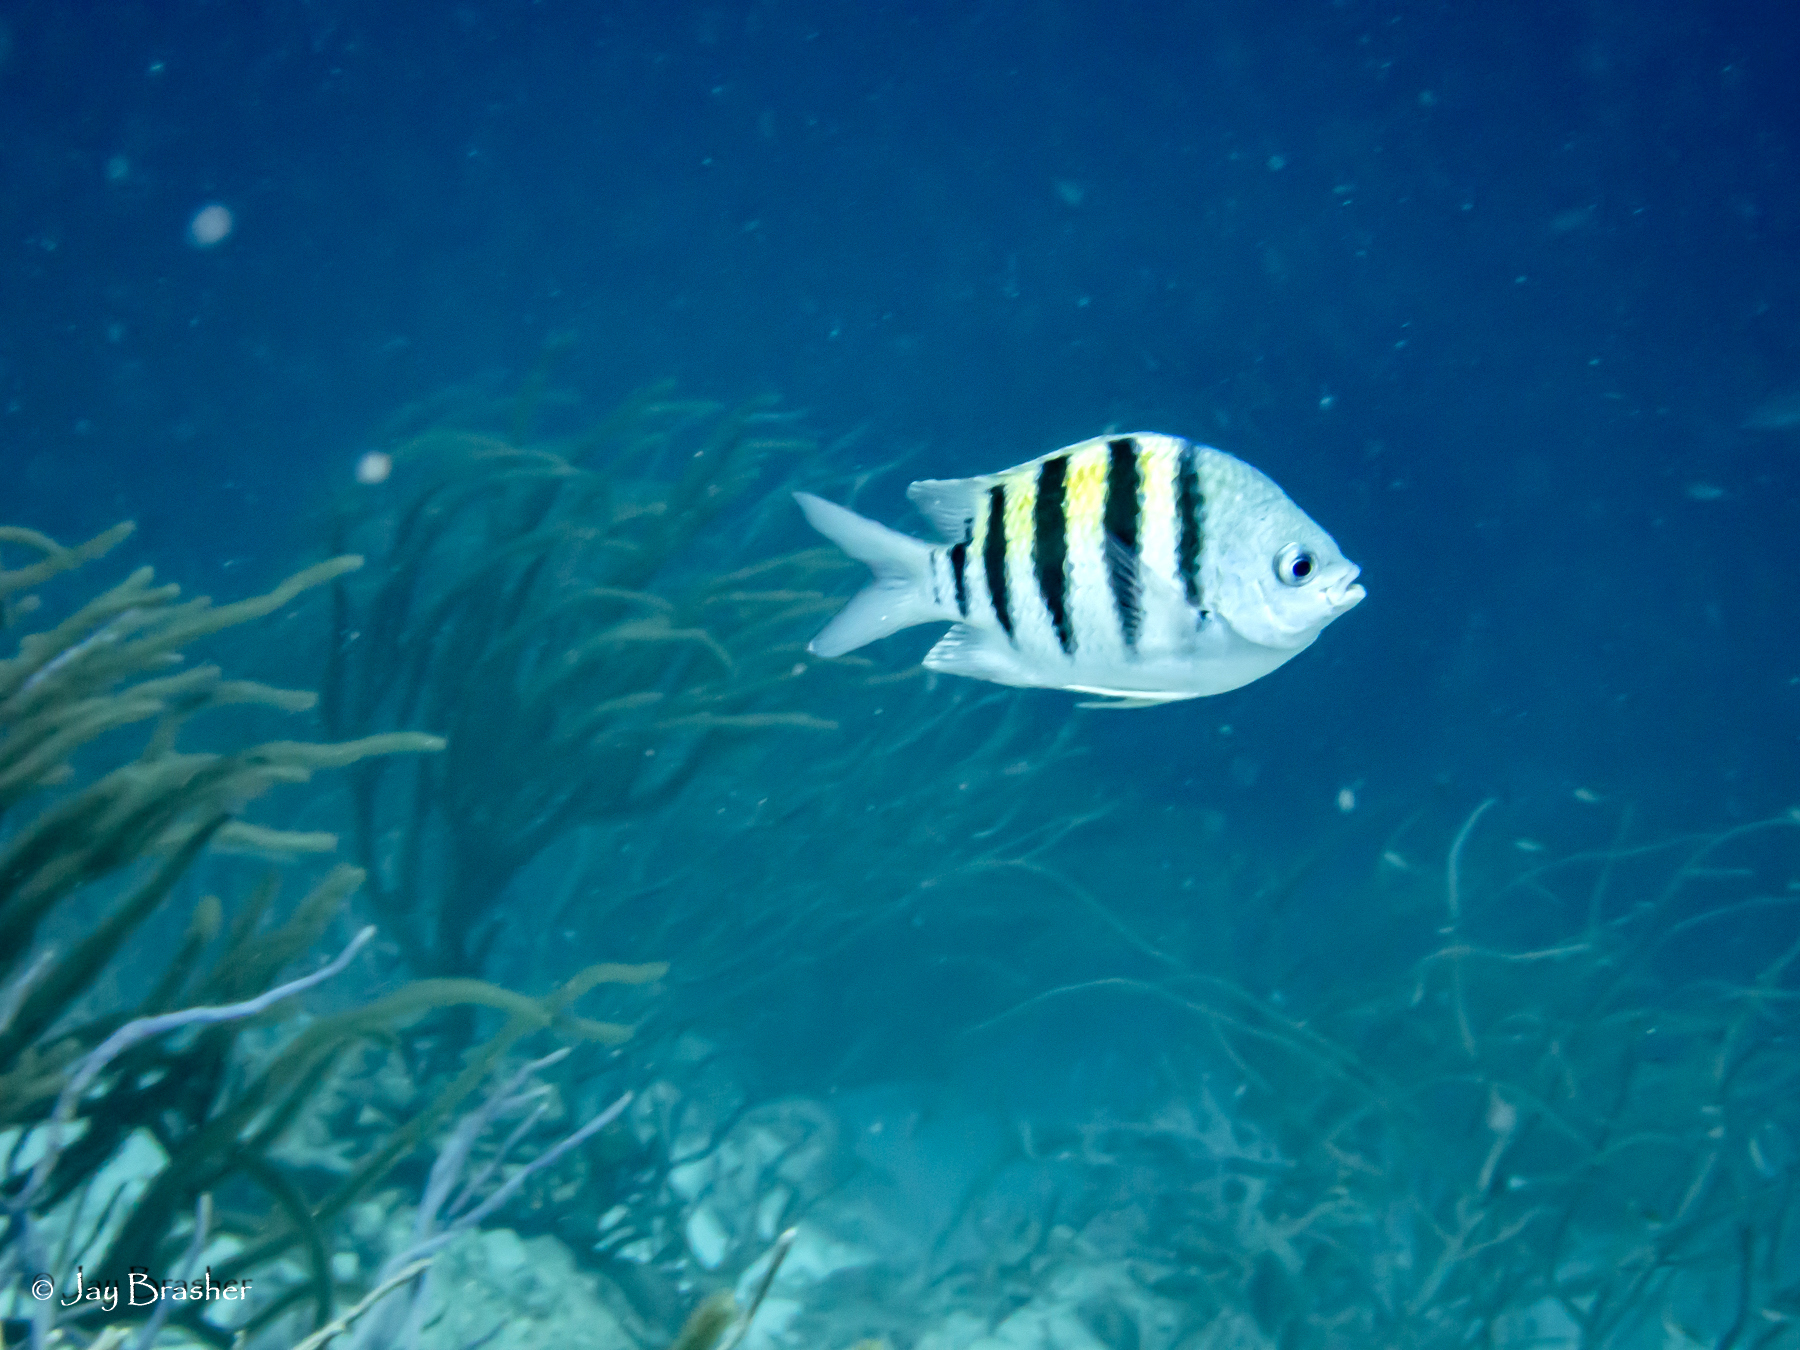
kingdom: Animalia
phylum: Chordata
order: Perciformes
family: Pomacentridae
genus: Abudefduf
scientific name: Abudefduf saxatilis
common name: Sergeant major
